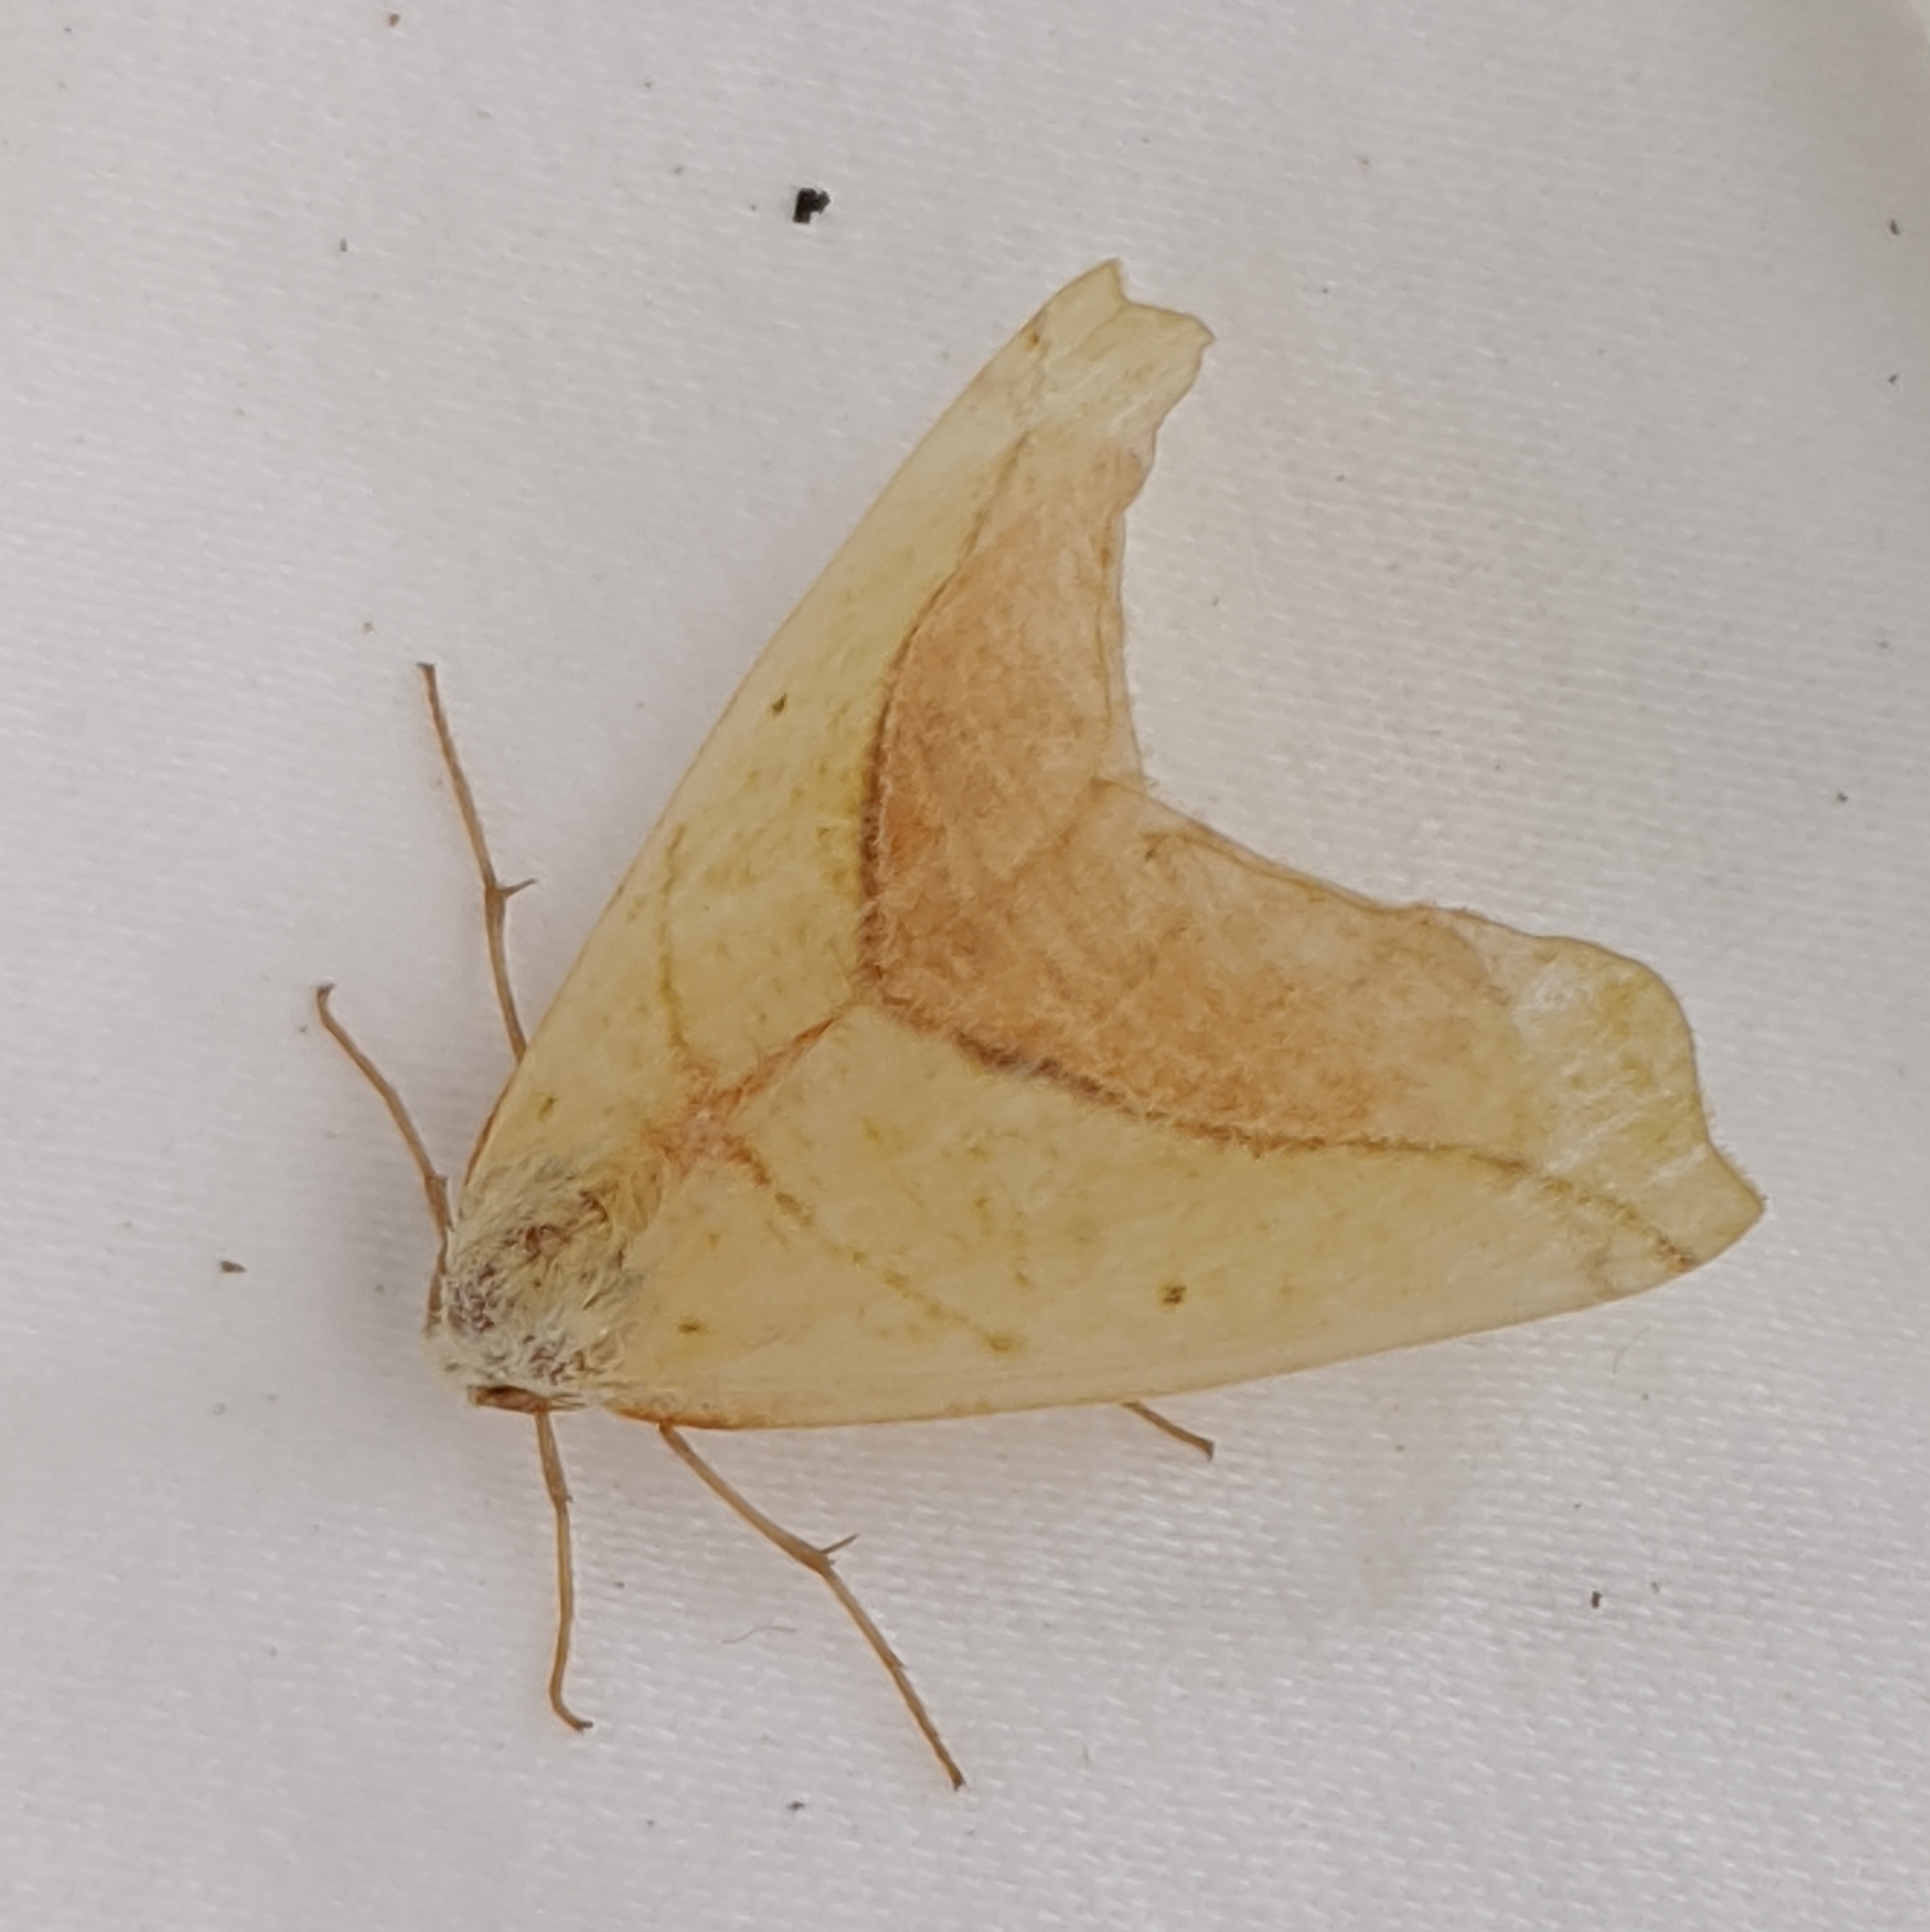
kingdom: Animalia
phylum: Arthropoda
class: Insecta
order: Lepidoptera
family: Geometridae
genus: Sicya
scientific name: Sicya macularia
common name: Sharp-lined yellow
